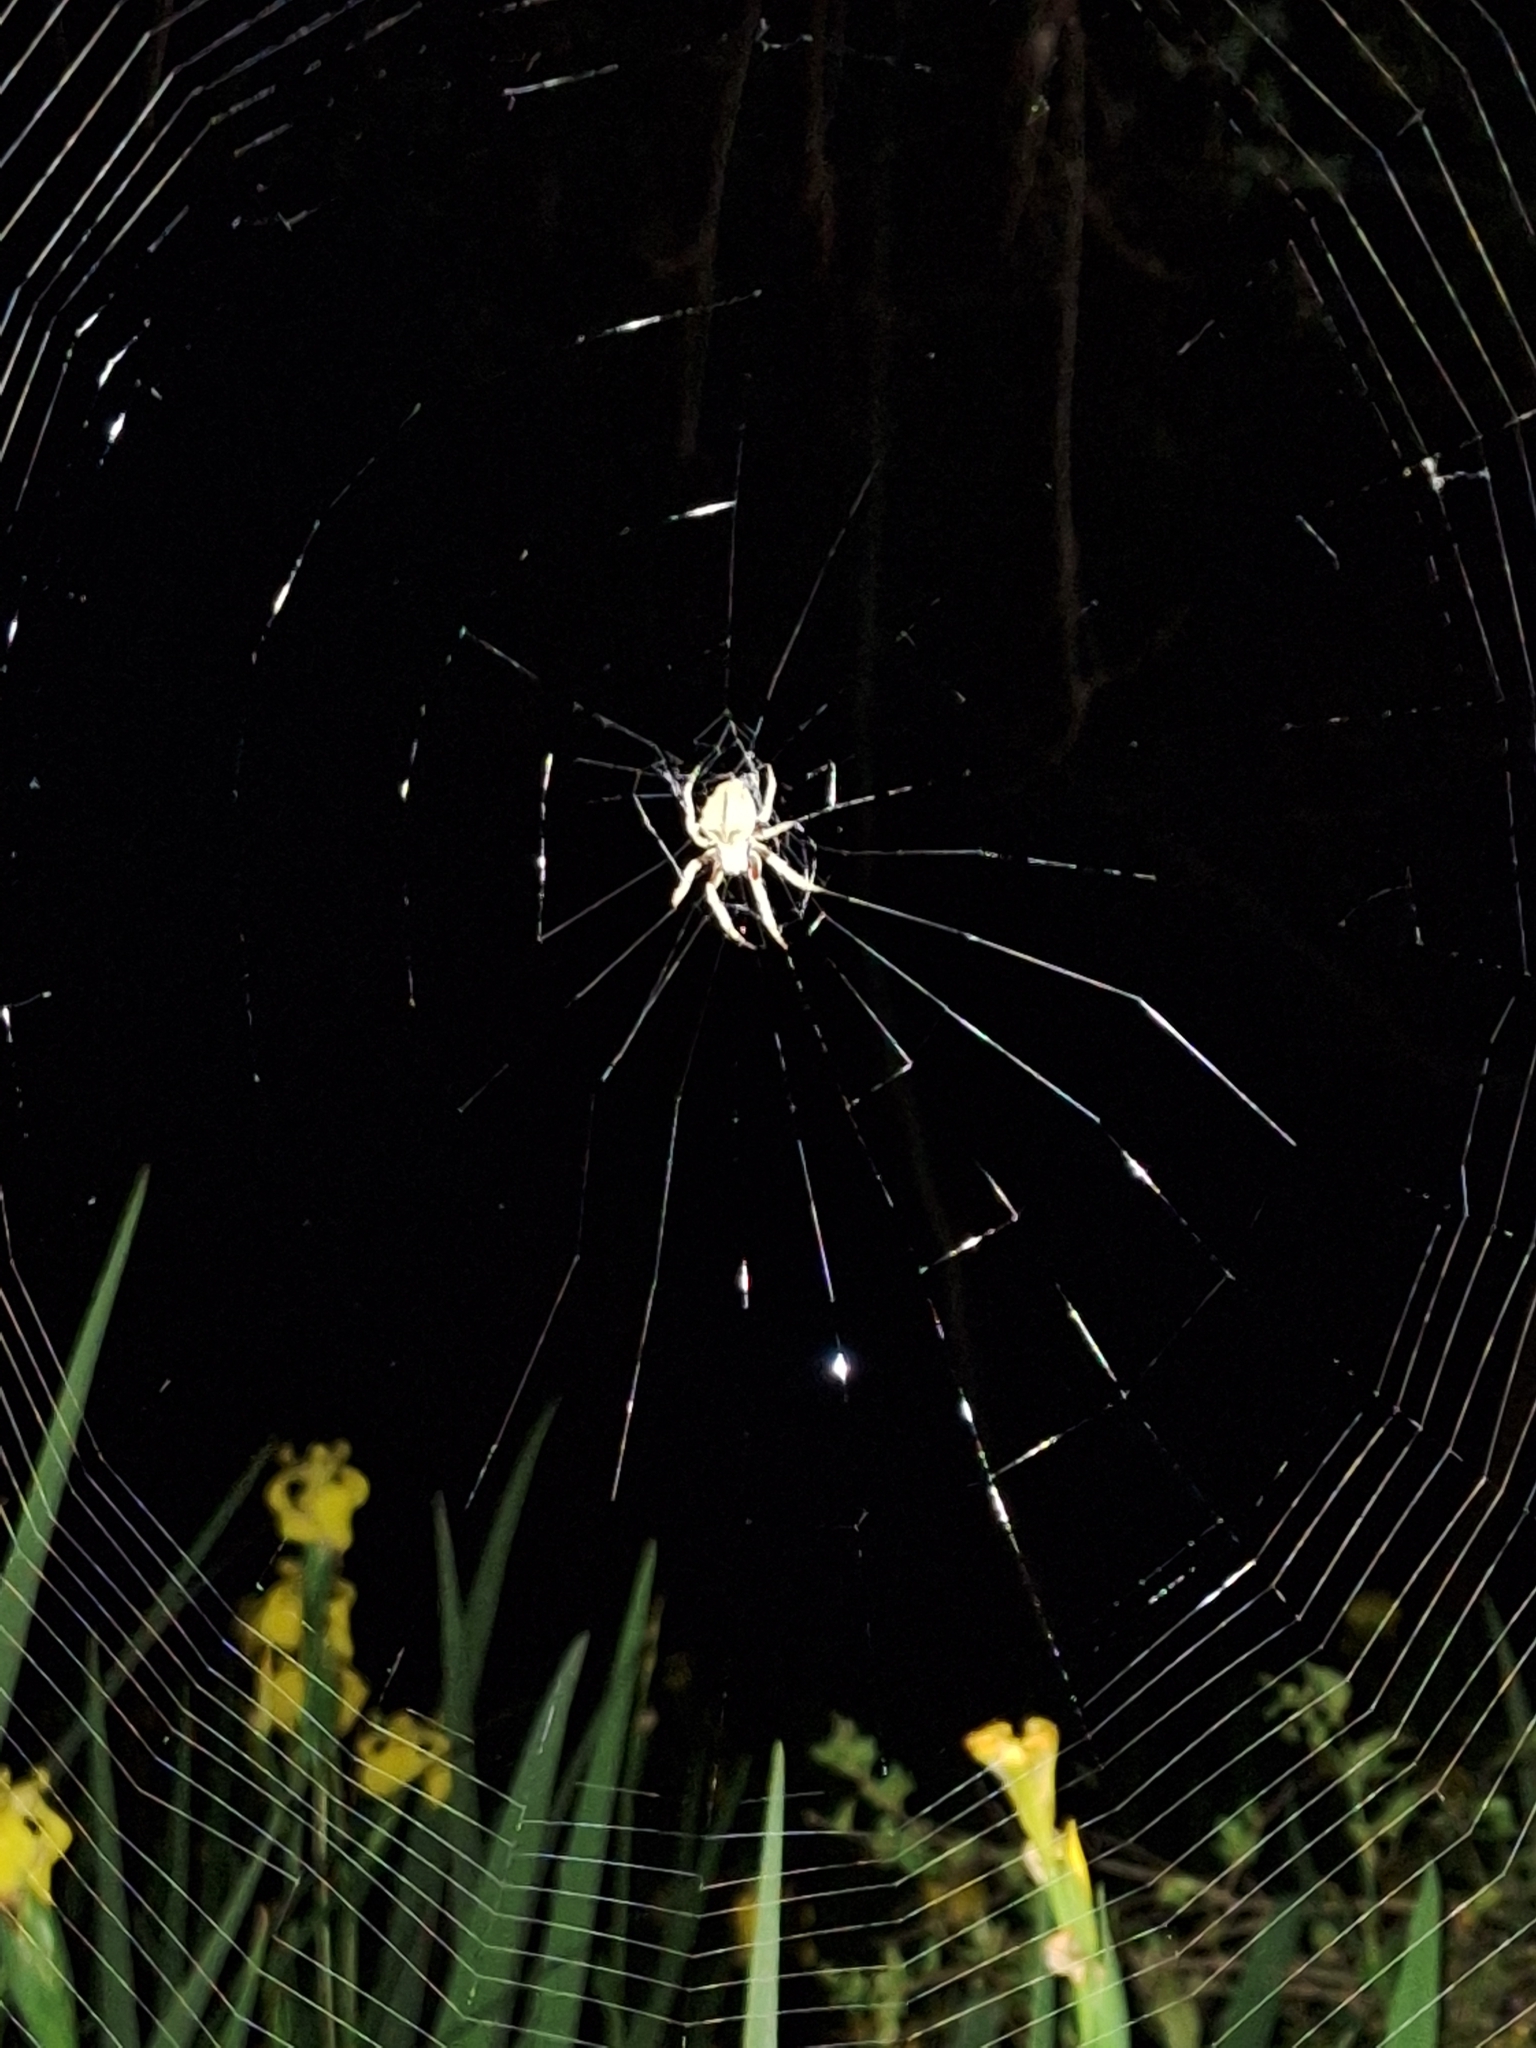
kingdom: Animalia
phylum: Arthropoda
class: Arachnida
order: Araneae
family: Araneidae
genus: Parawixia
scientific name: Parawixia audax
